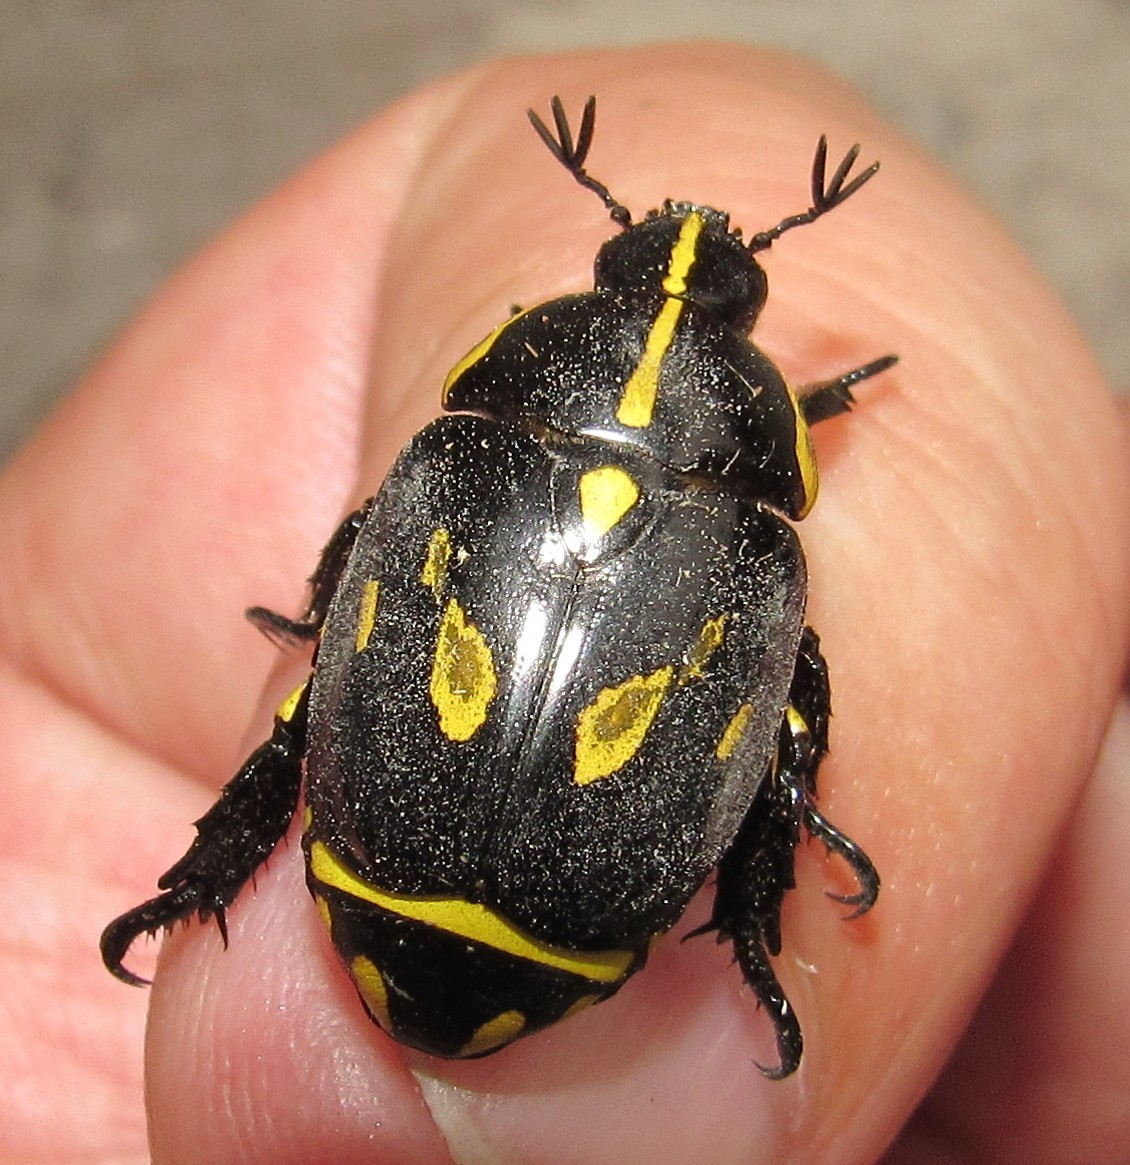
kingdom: Animalia
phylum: Arthropoda
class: Insecta
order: Coleoptera
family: Scarabaeidae
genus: Rutela
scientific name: Rutela lineola
